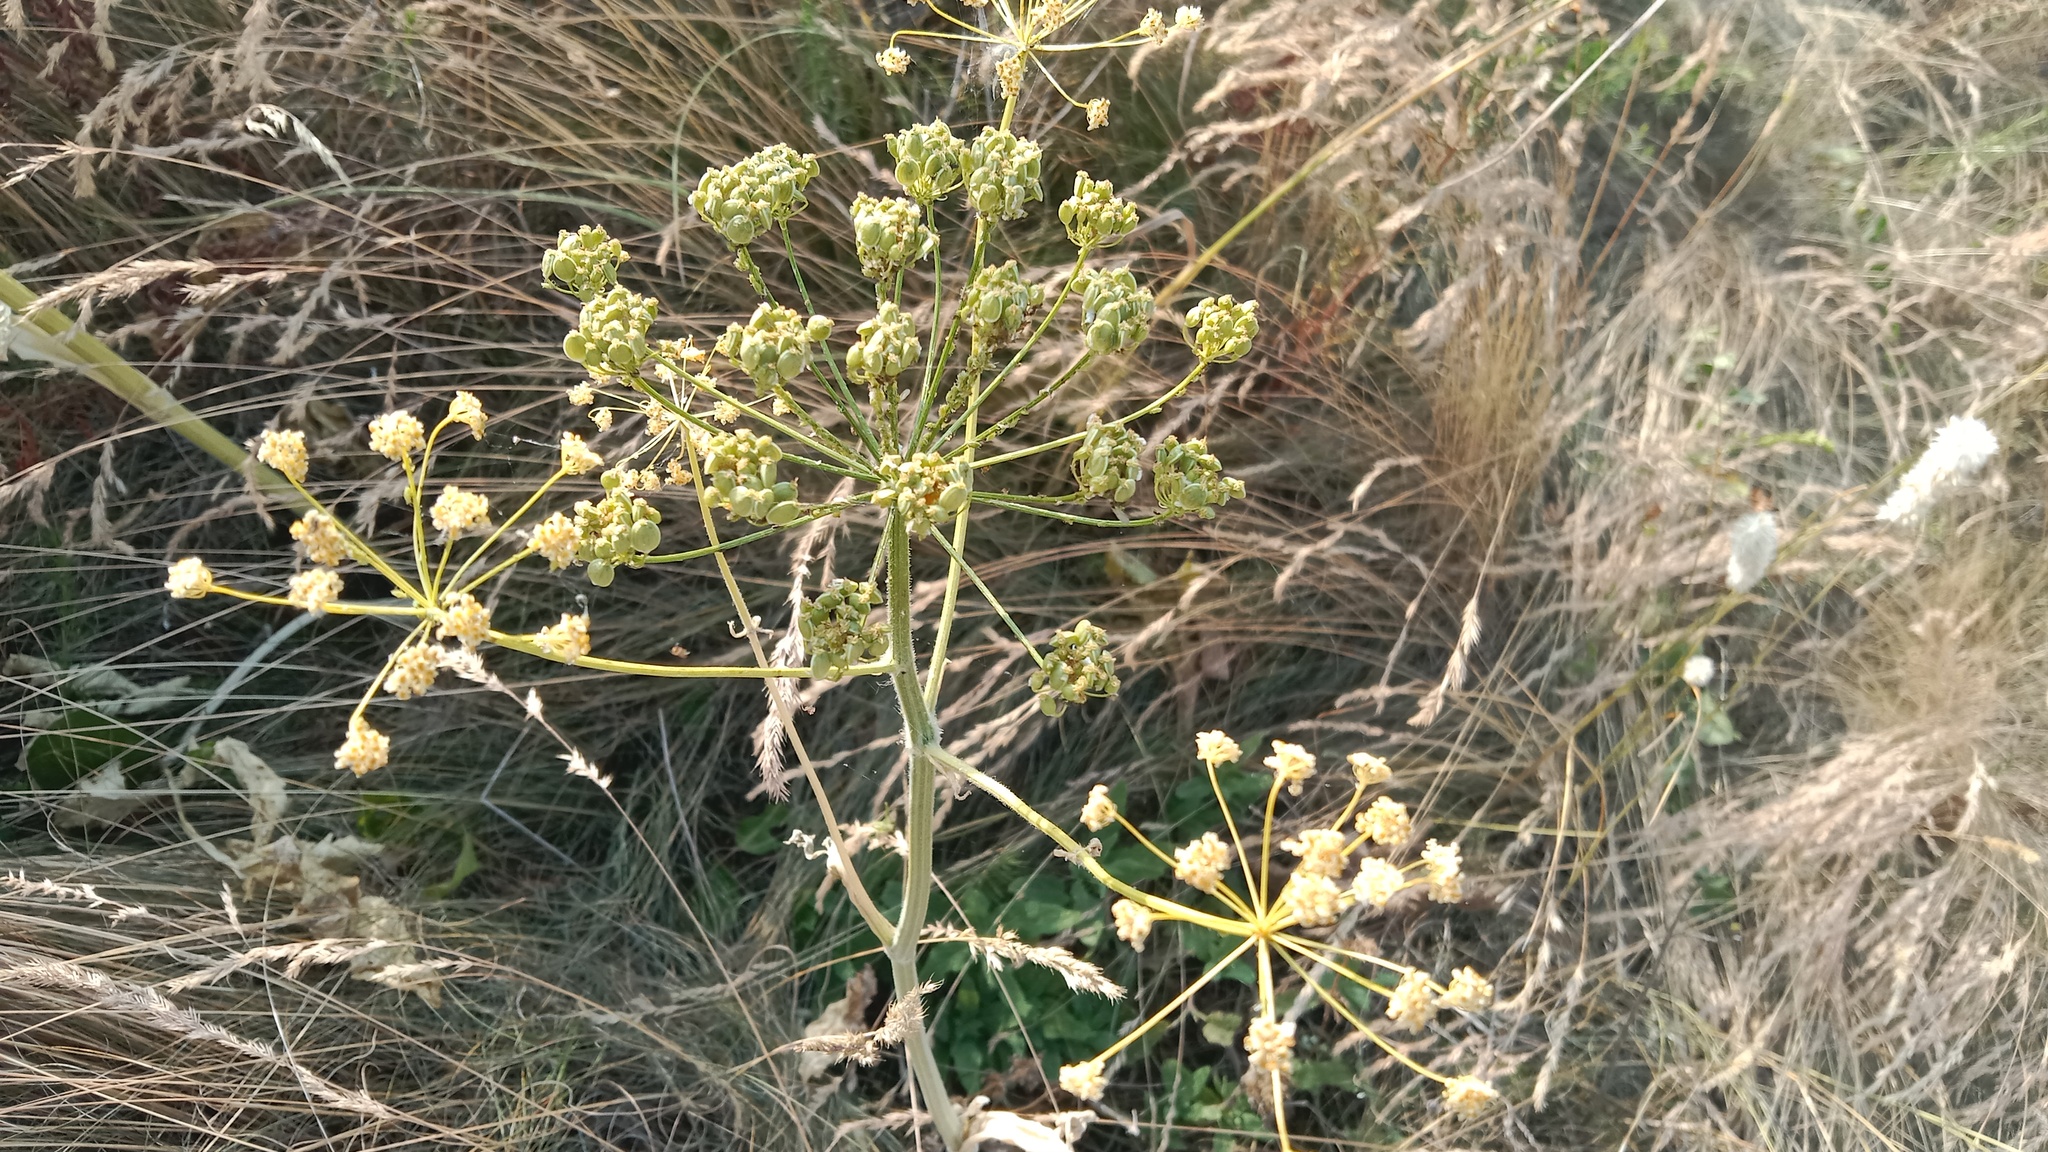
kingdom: Plantae
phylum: Tracheophyta
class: Magnoliopsida
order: Apiales
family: Apiaceae
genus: Pastinaca
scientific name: Pastinaca clausii
